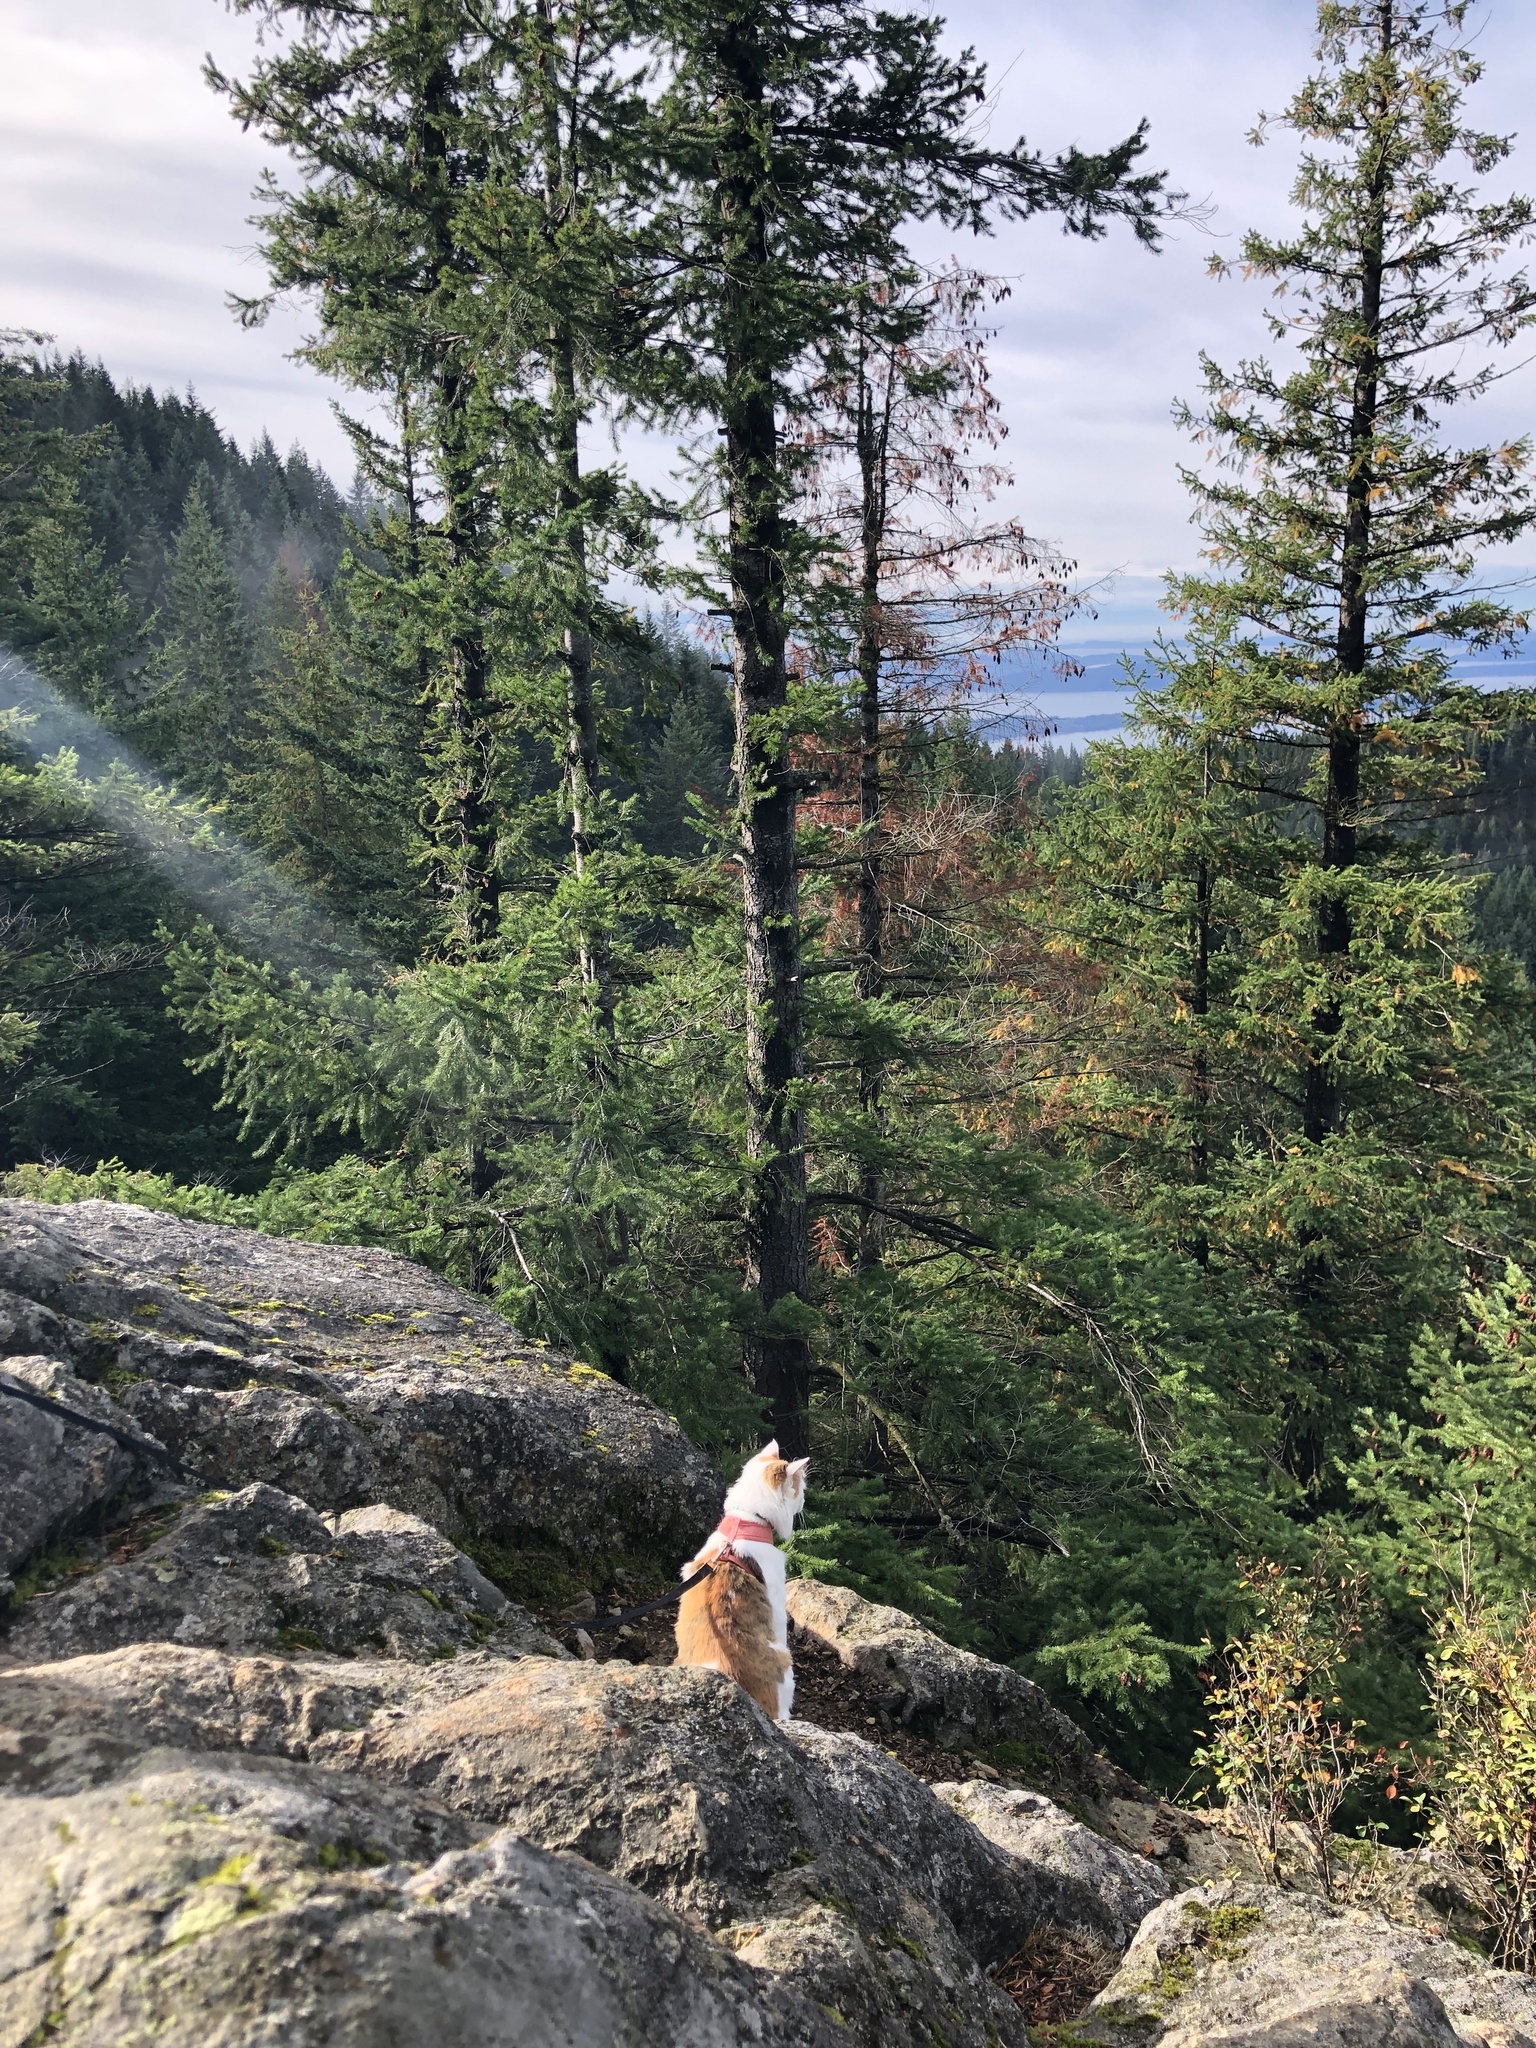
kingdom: Plantae
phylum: Tracheophyta
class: Pinopsida
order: Pinales
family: Pinaceae
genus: Pseudotsuga
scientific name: Pseudotsuga menziesii
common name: Douglas fir
